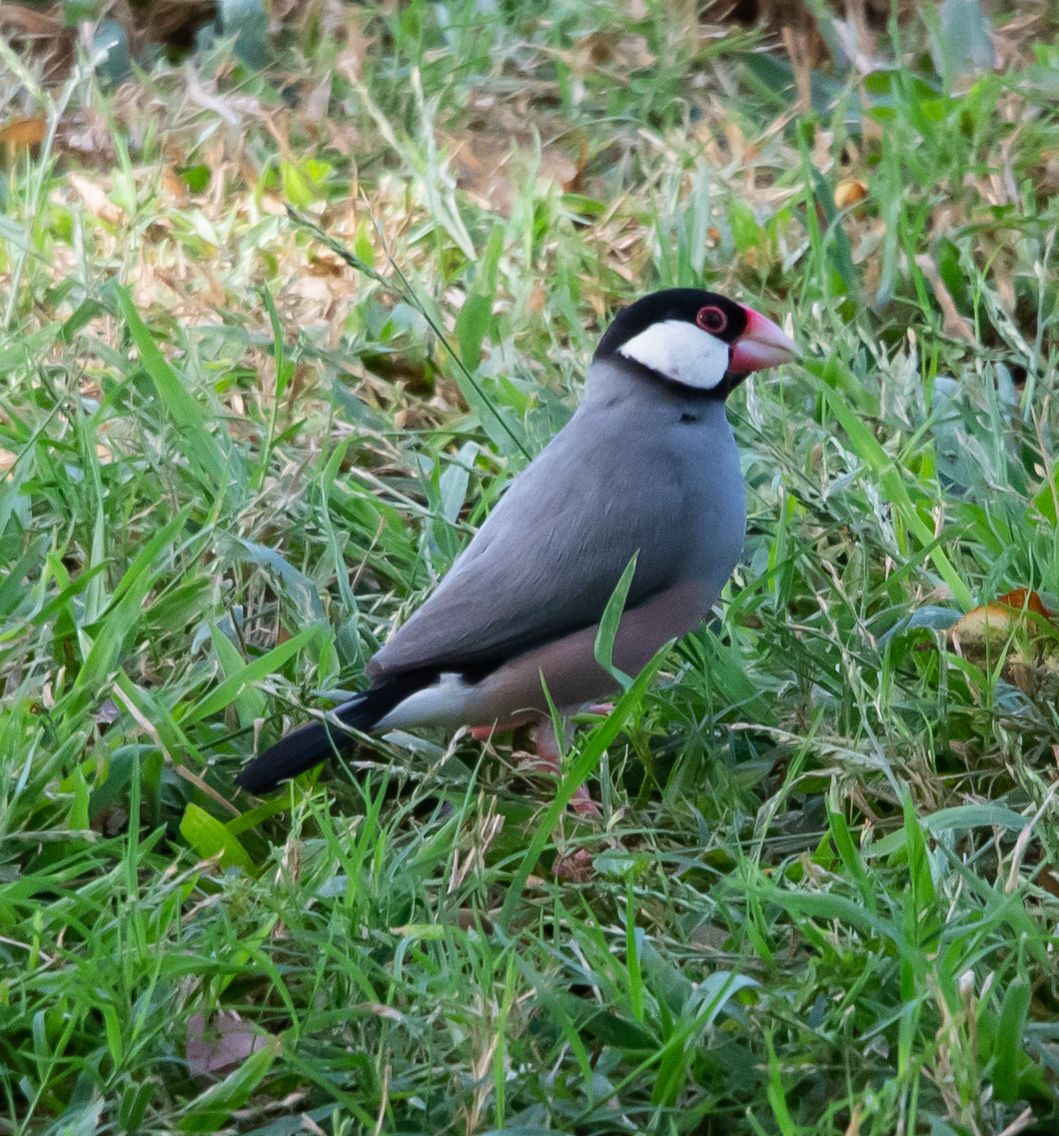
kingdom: Animalia
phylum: Chordata
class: Aves
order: Passeriformes
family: Estrildidae
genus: Lonchura
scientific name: Lonchura oryzivora
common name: Java sparrow
